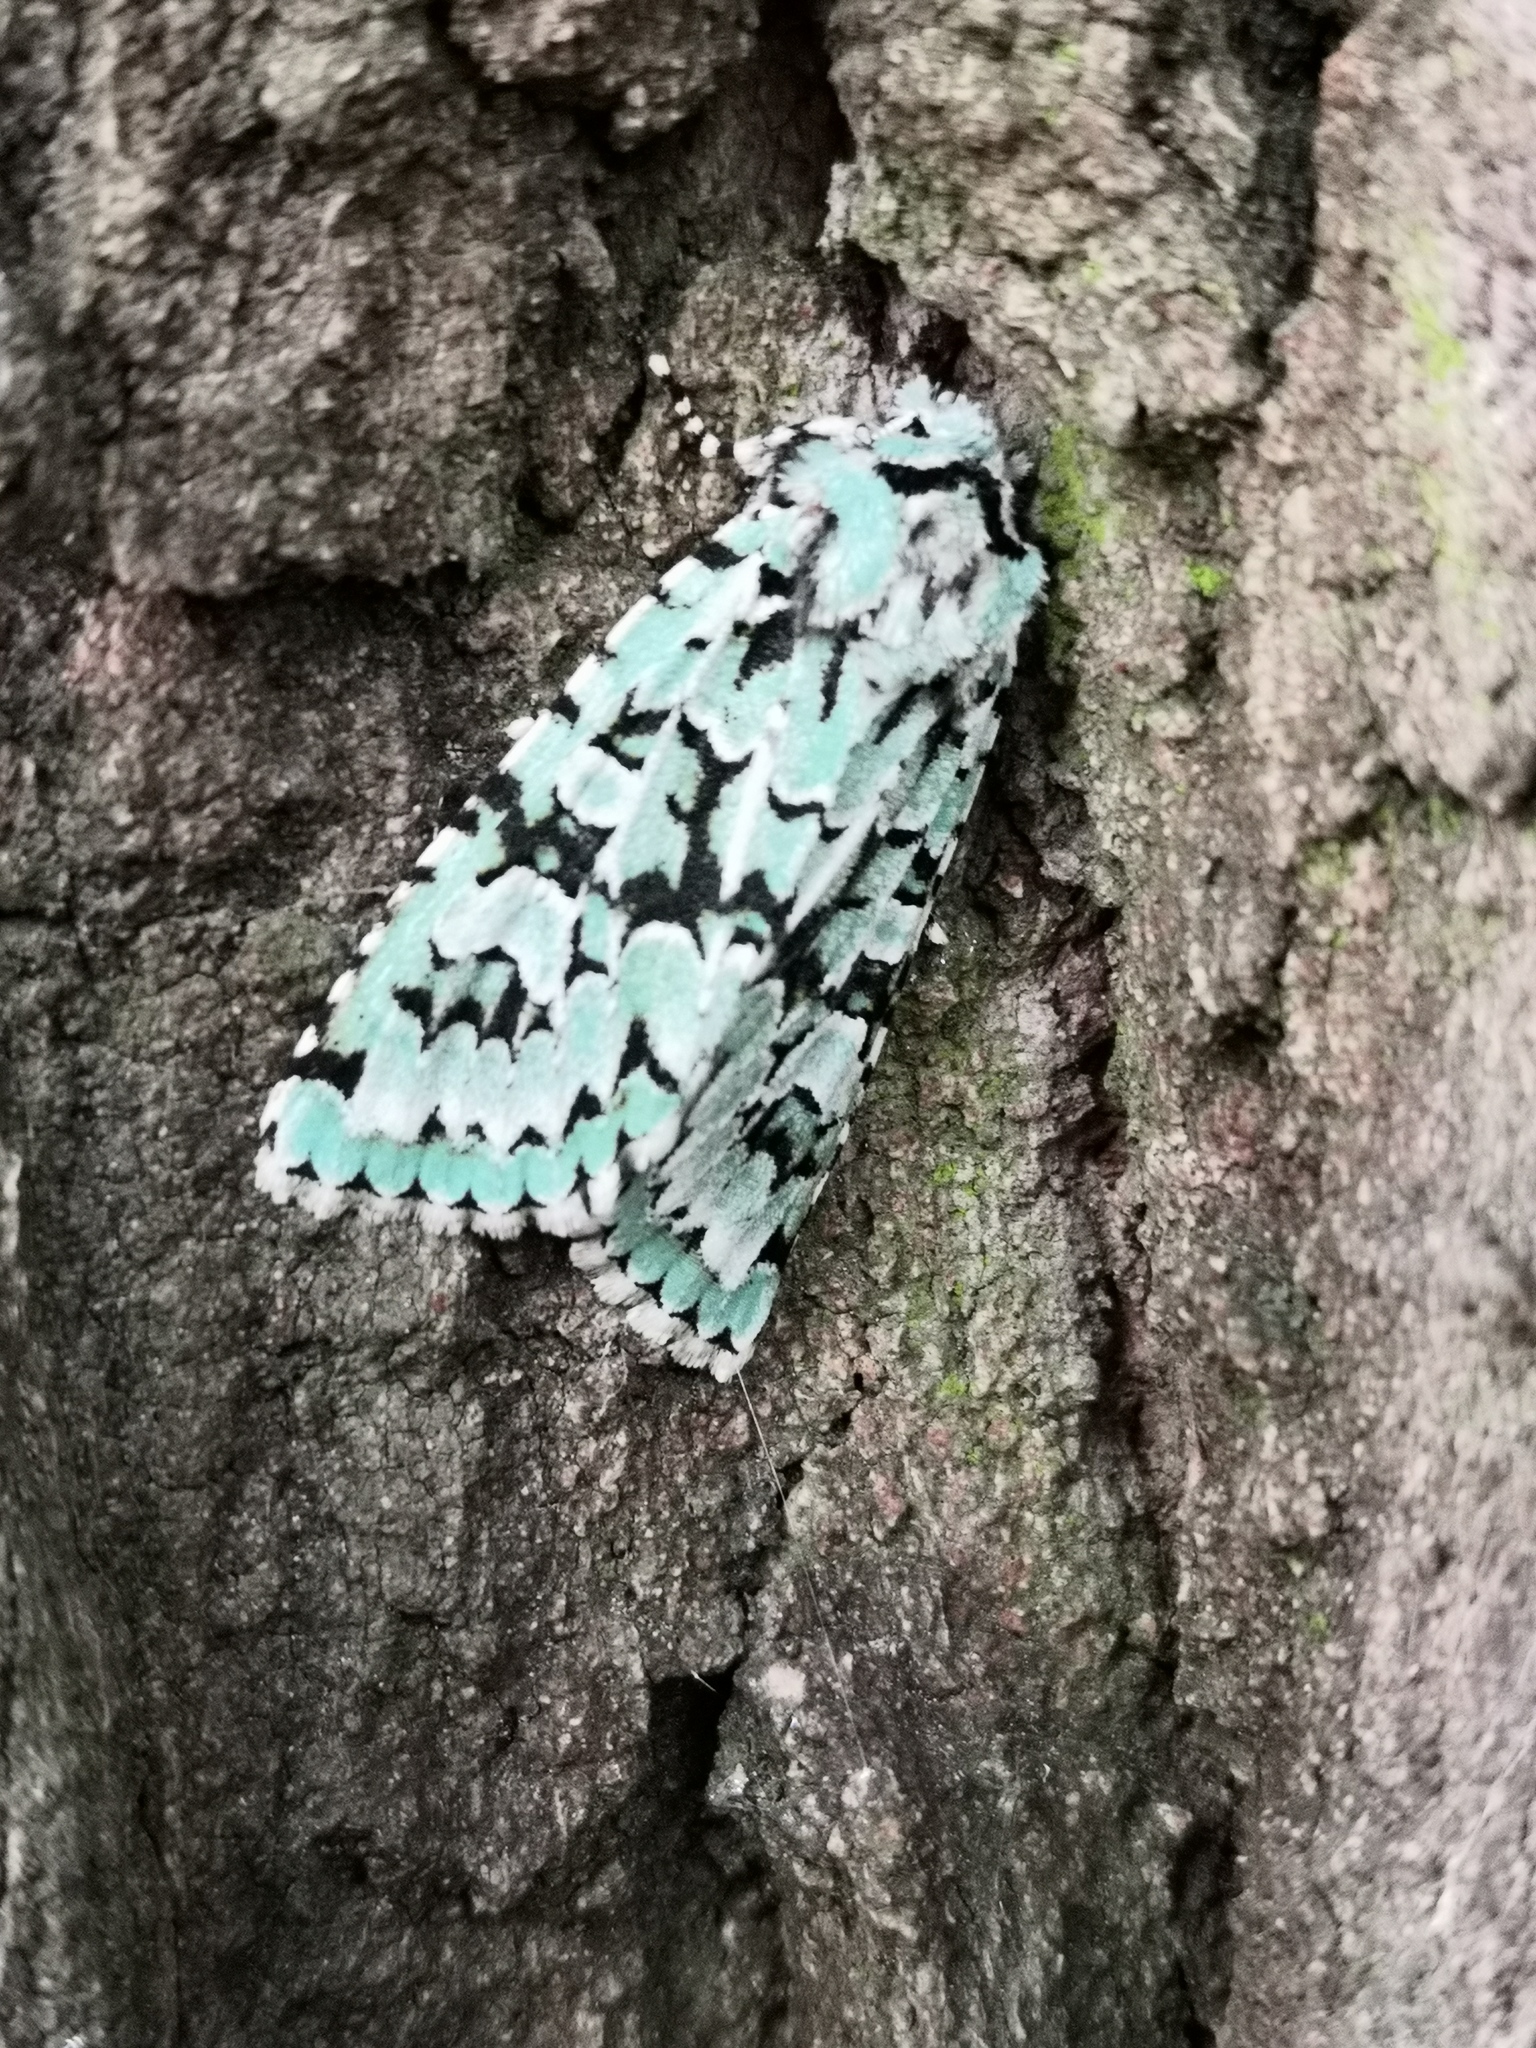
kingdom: Animalia
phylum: Arthropoda
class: Insecta
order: Lepidoptera
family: Noctuidae
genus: Griposia
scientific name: Griposia aprilina
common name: Merveille du jour
